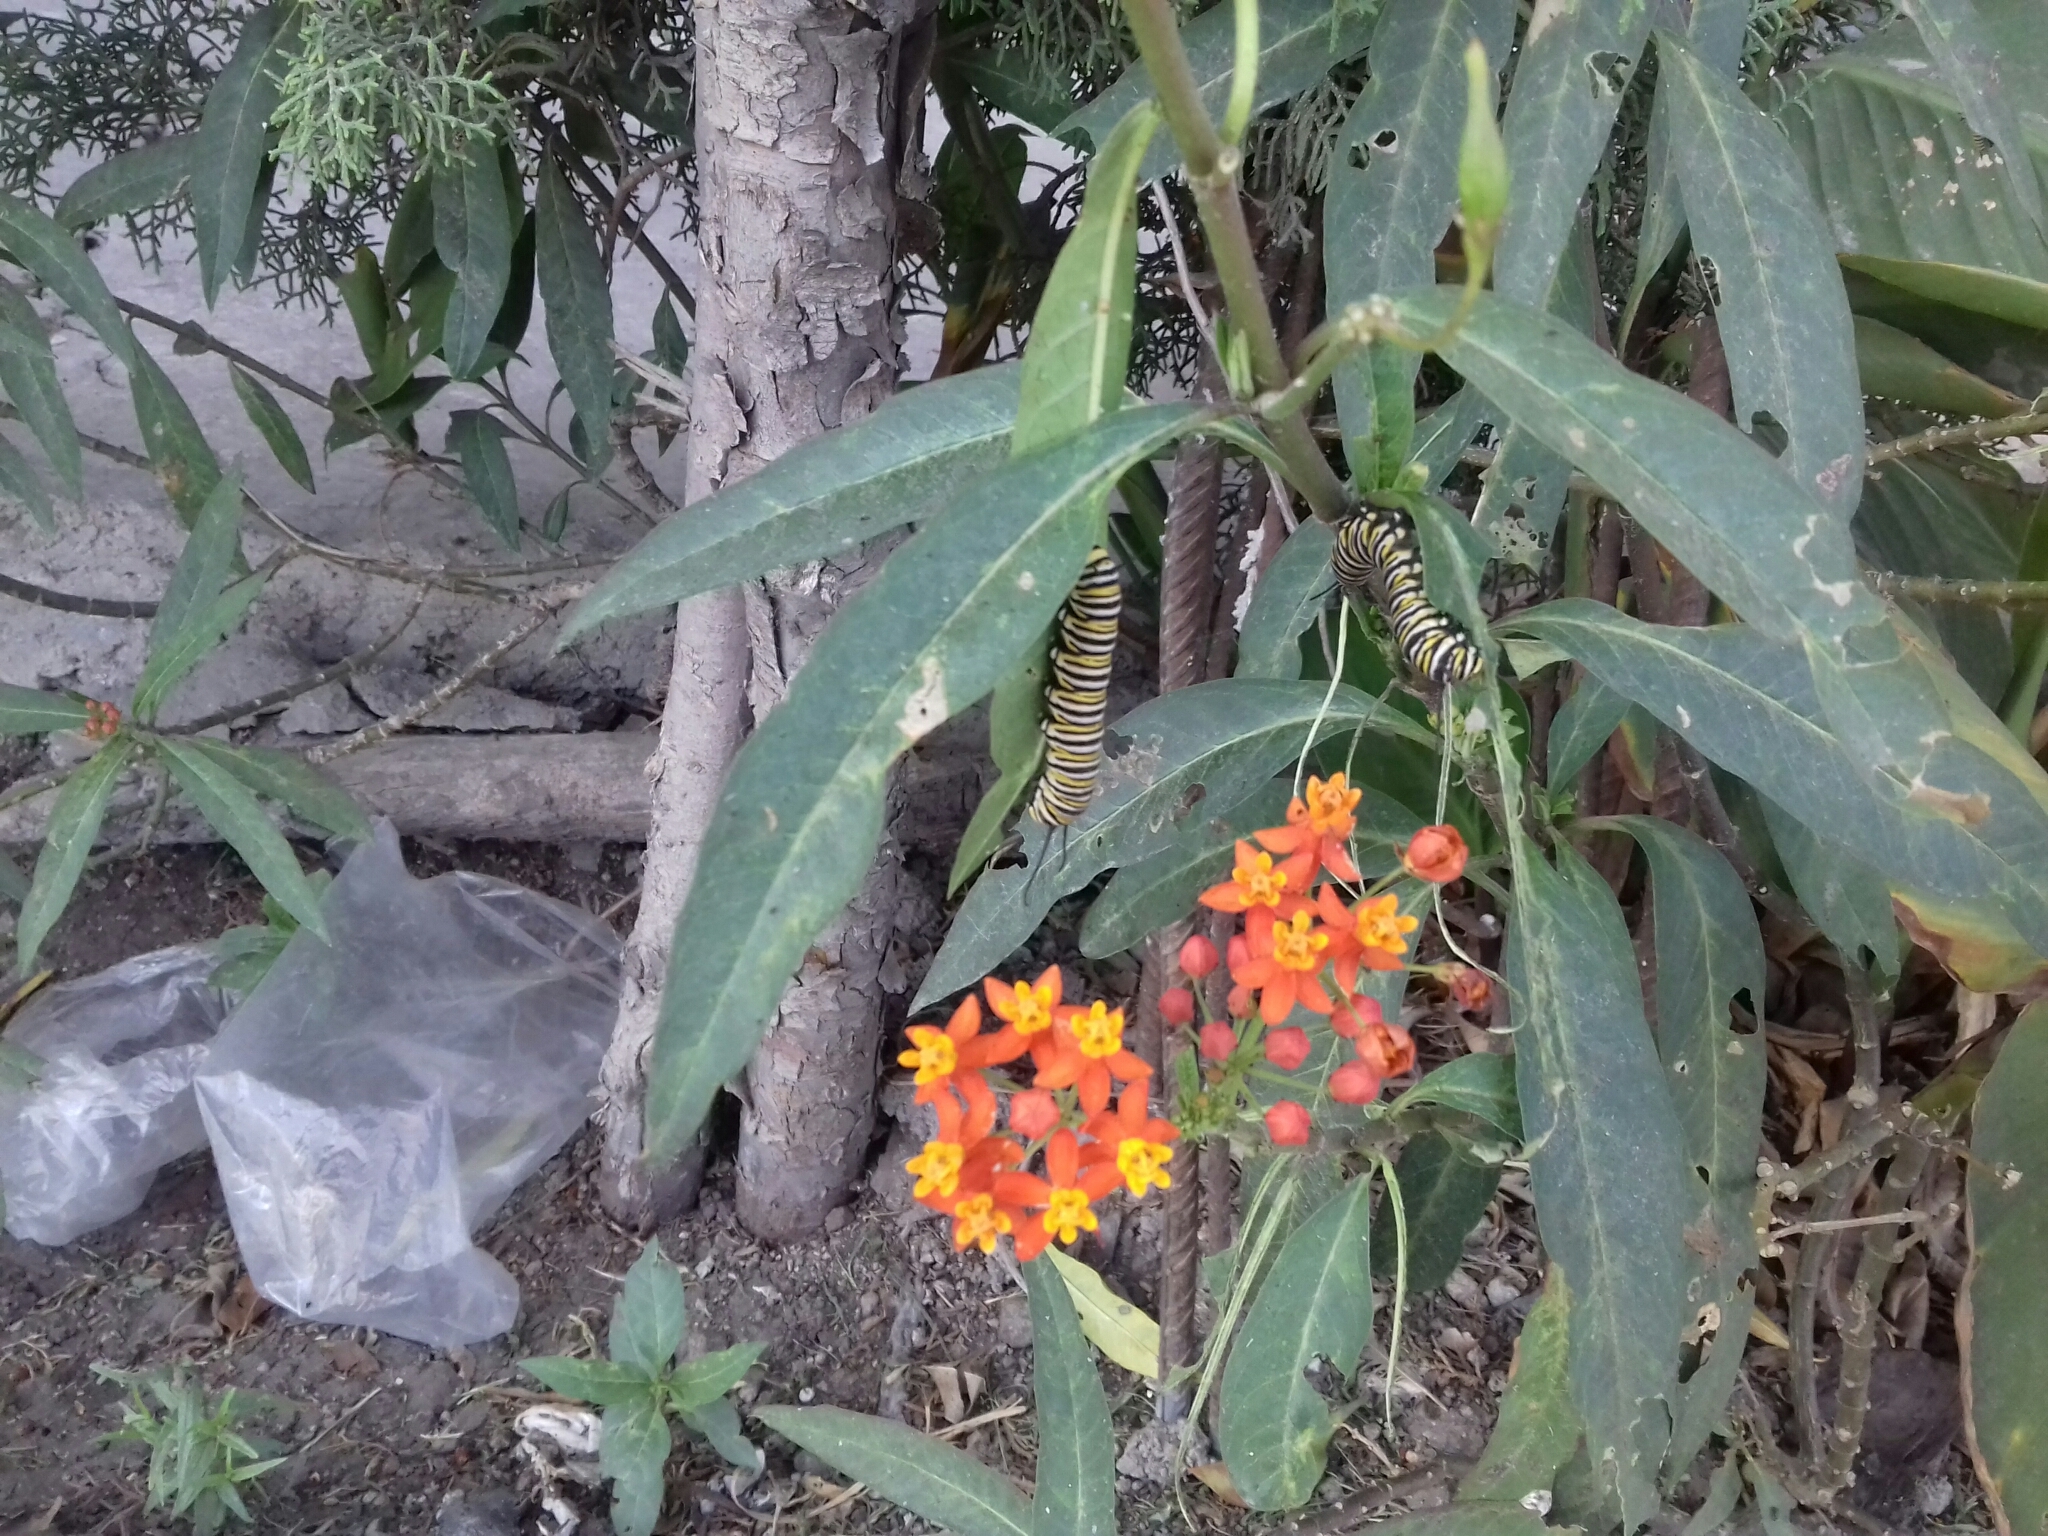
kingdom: Animalia
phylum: Arthropoda
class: Insecta
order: Lepidoptera
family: Nymphalidae
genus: Danaus
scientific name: Danaus plexippus
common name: Monarch
